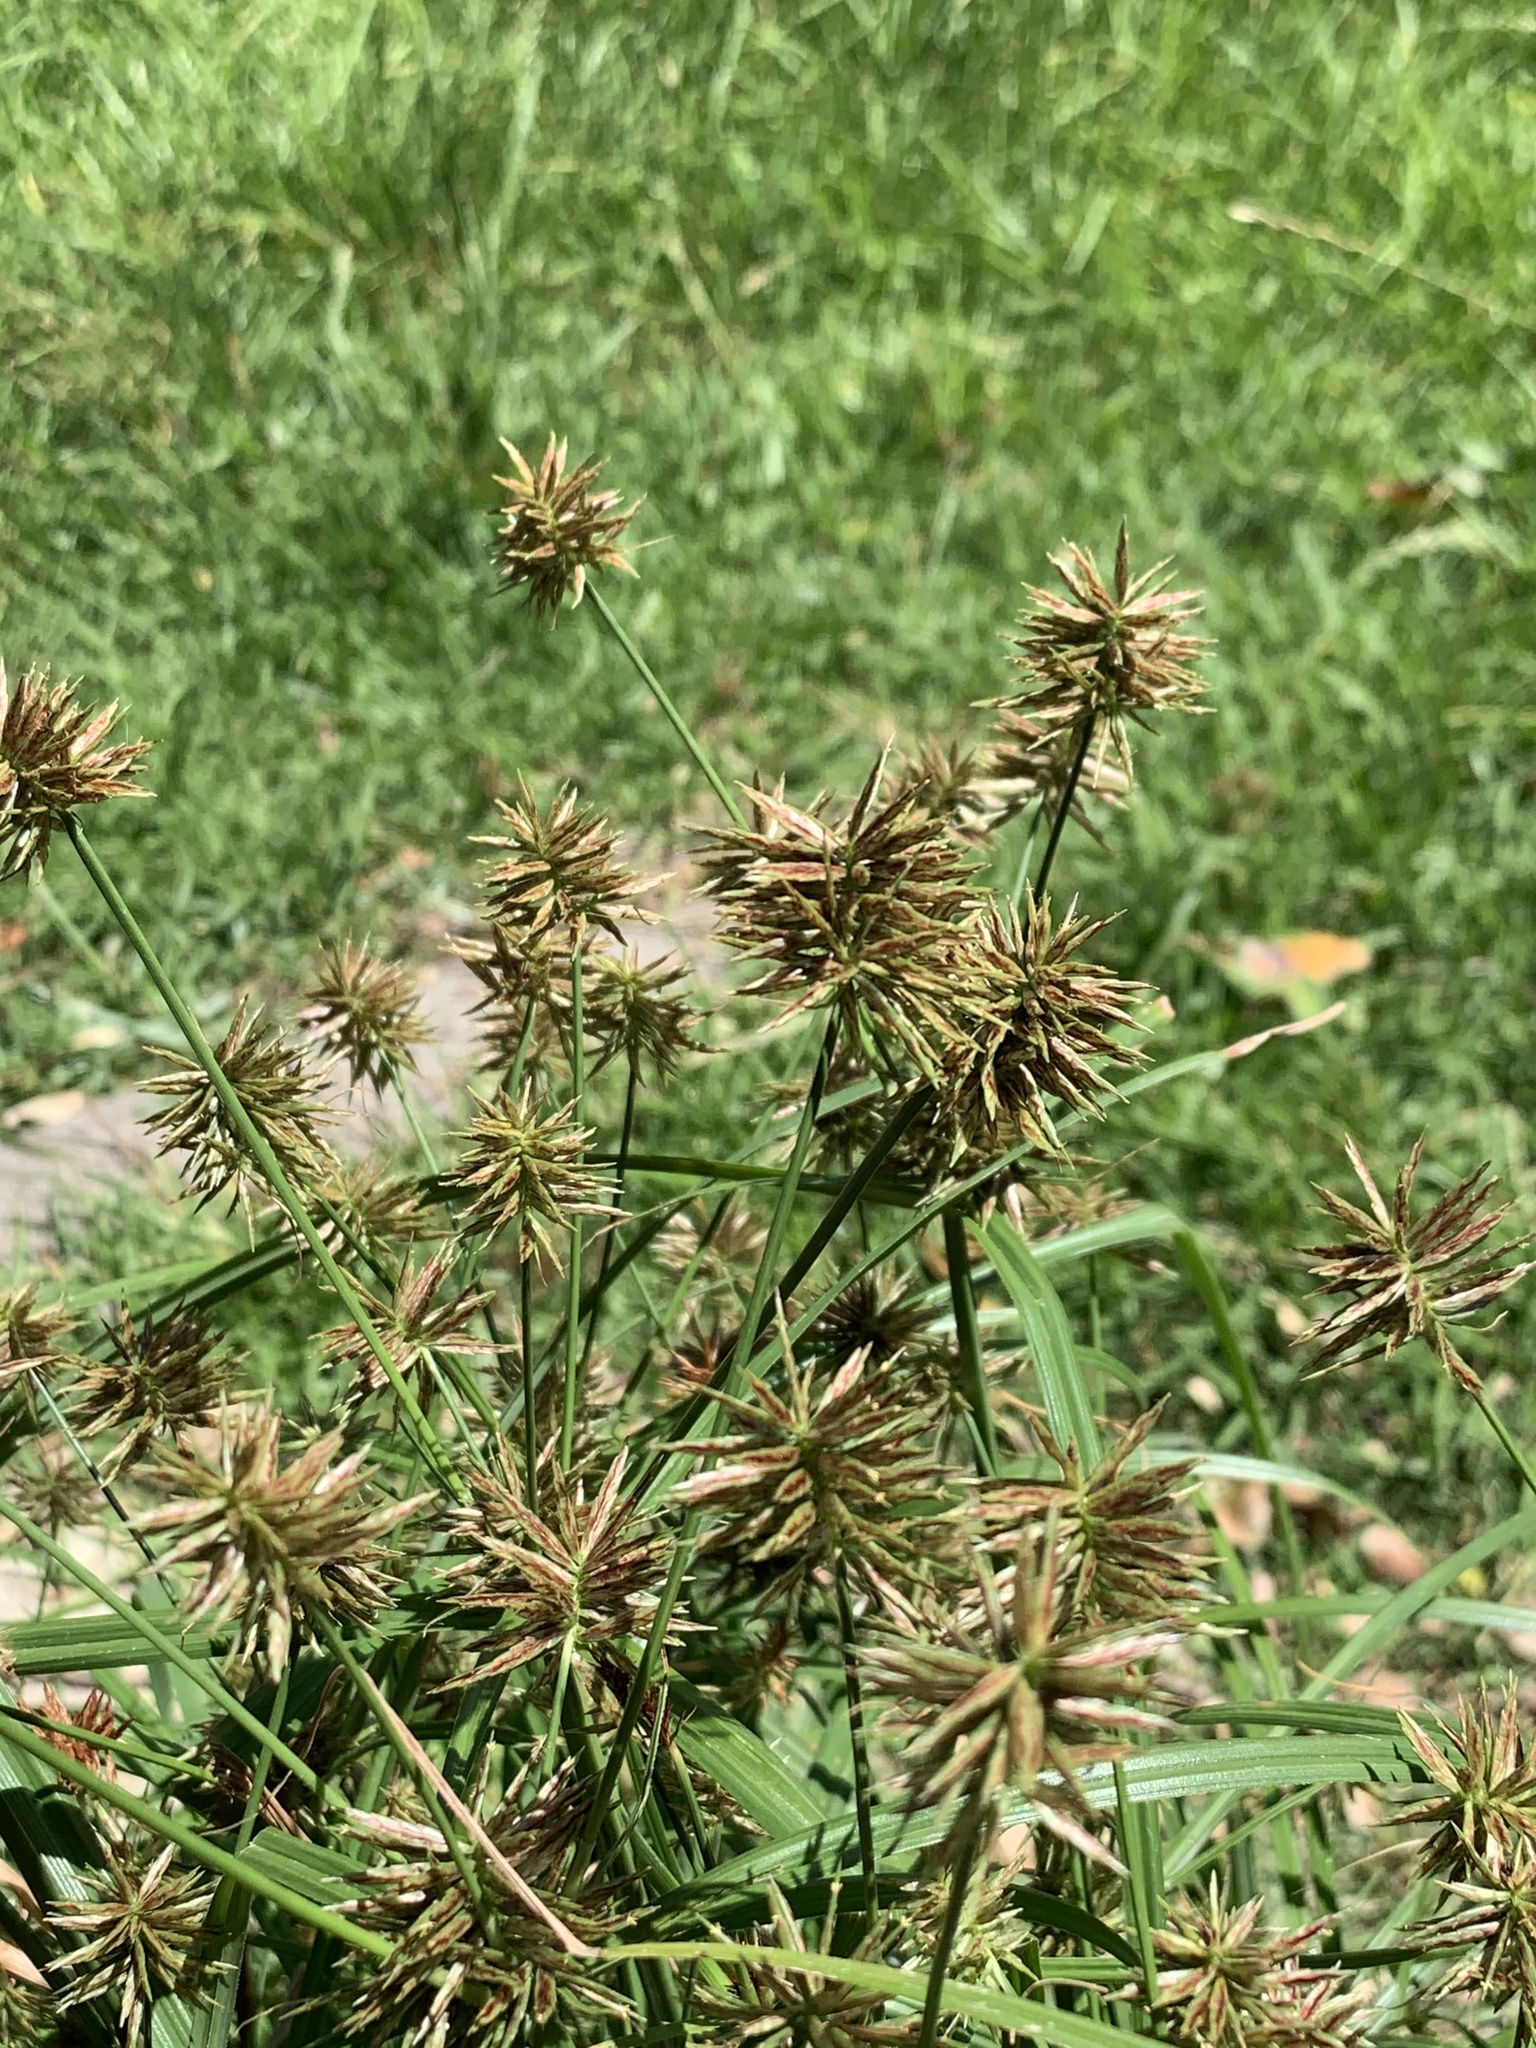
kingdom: Plantae
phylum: Tracheophyta
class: Liliopsida
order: Poales
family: Cyperaceae
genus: Cyperus
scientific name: Cyperus congestus
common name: Dense flat sedge
